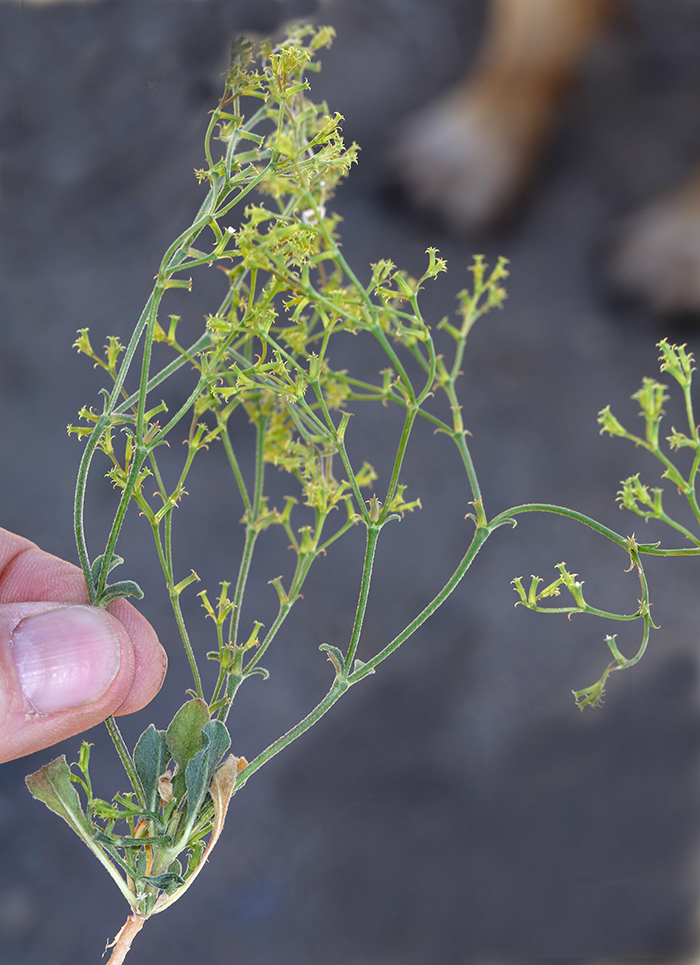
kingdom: Plantae
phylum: Tracheophyta
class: Magnoliopsida
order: Caryophyllales
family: Polygonaceae
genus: Chorizanthe
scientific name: Chorizanthe brevicornu
